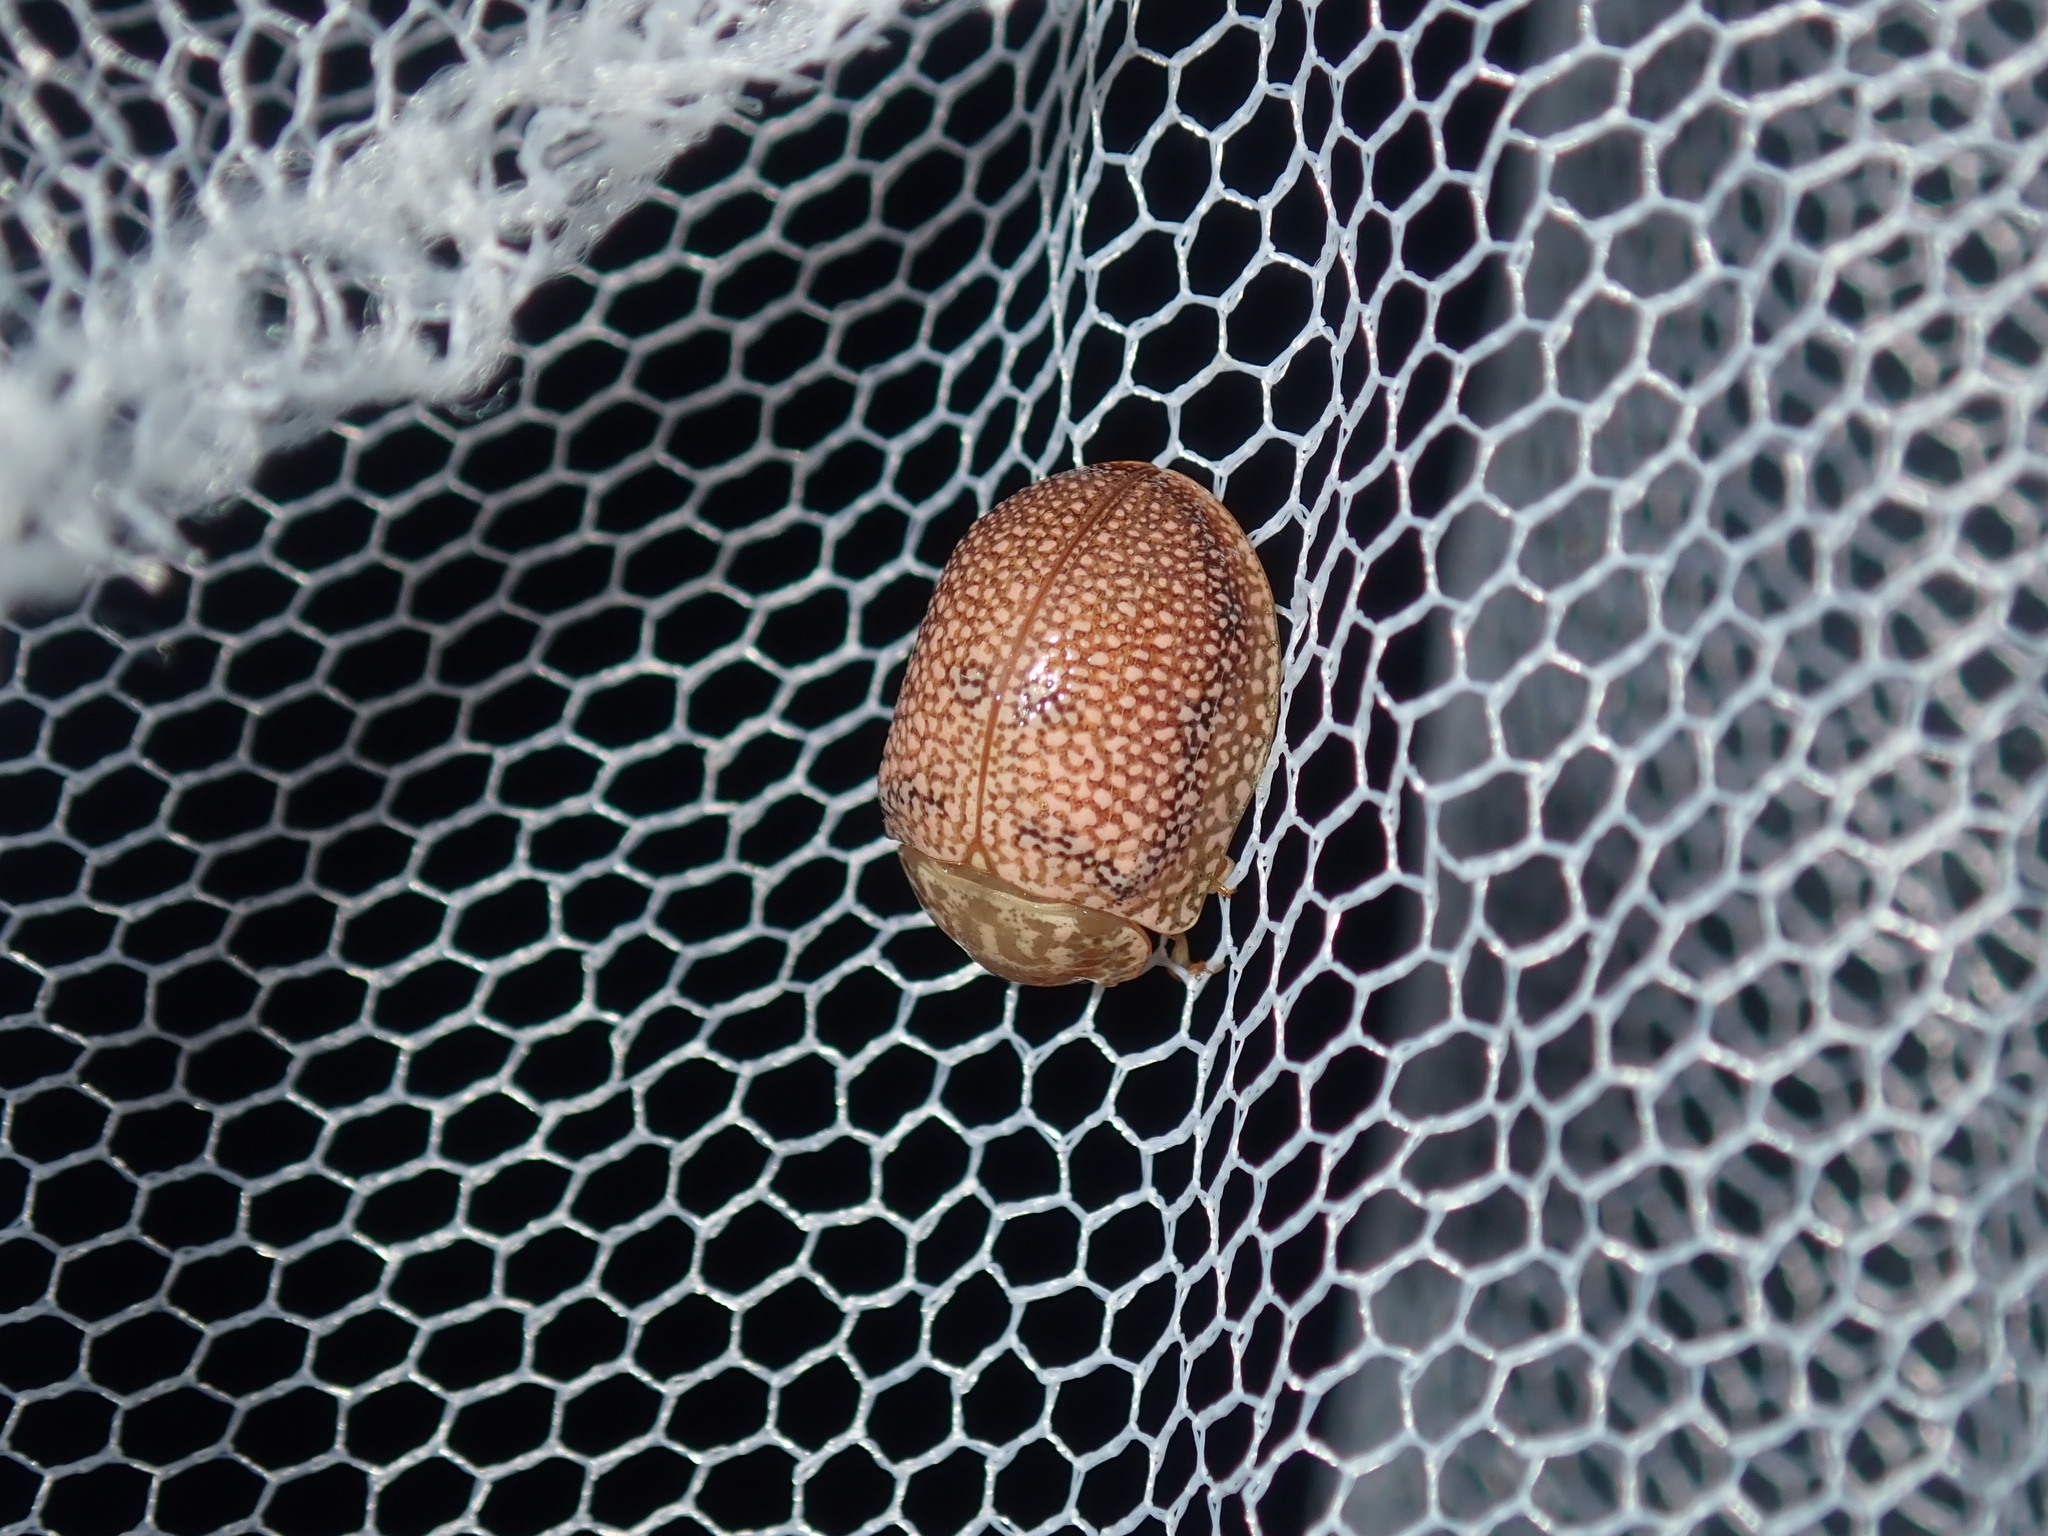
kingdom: Animalia
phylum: Arthropoda
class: Insecta
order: Coleoptera
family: Chrysomelidae
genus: Paropsis
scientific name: Paropsis
